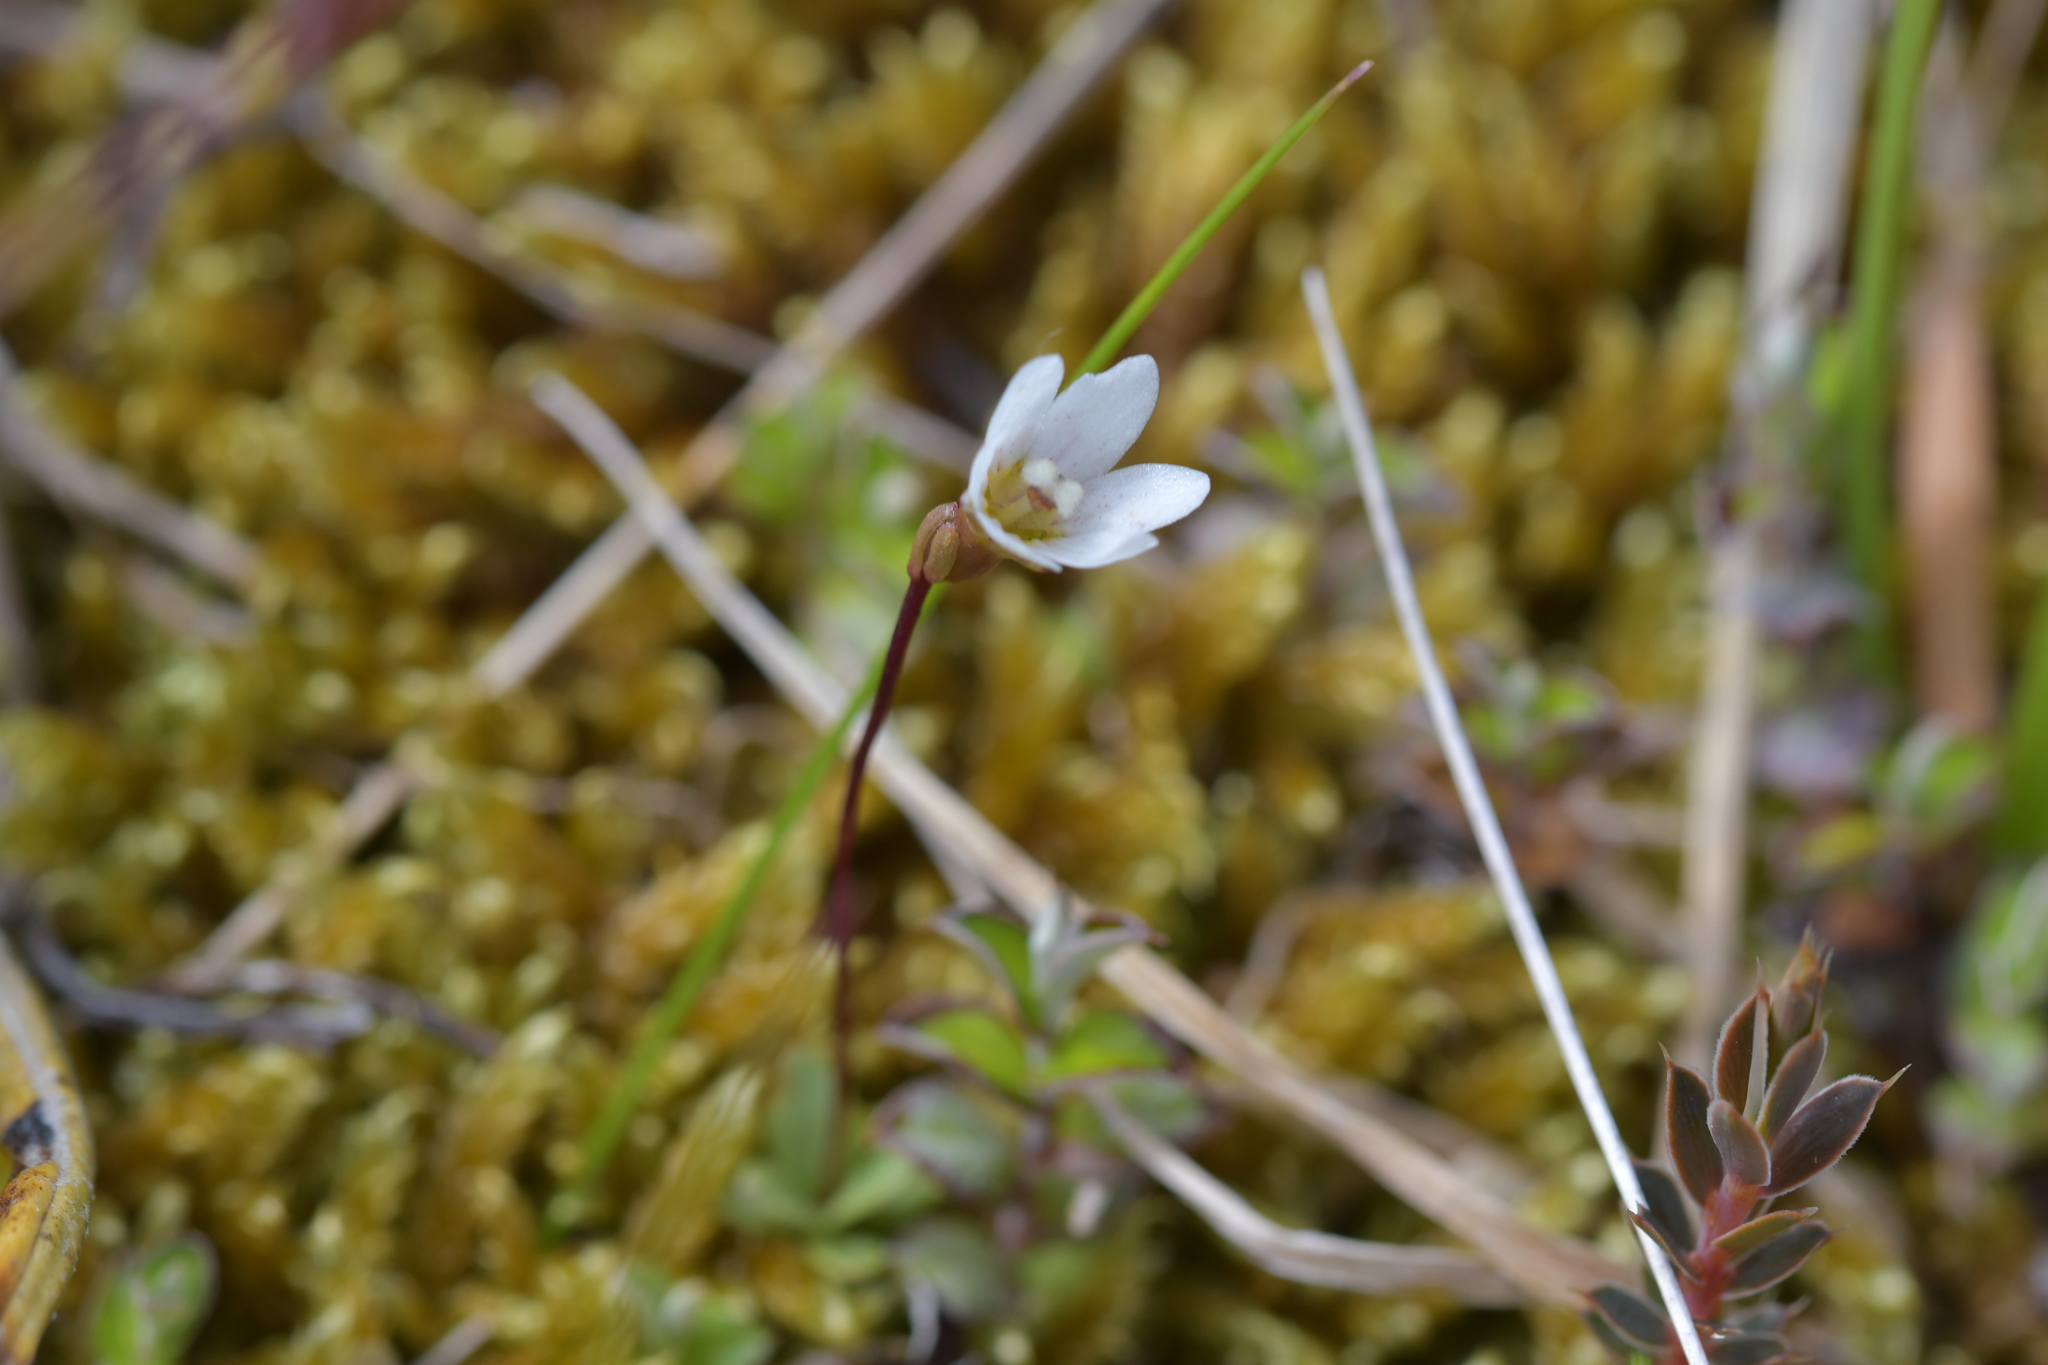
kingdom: Plantae
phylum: Tracheophyta
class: Magnoliopsida
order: Asterales
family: Stylidiaceae
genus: Forstera
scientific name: Forstera tenella
